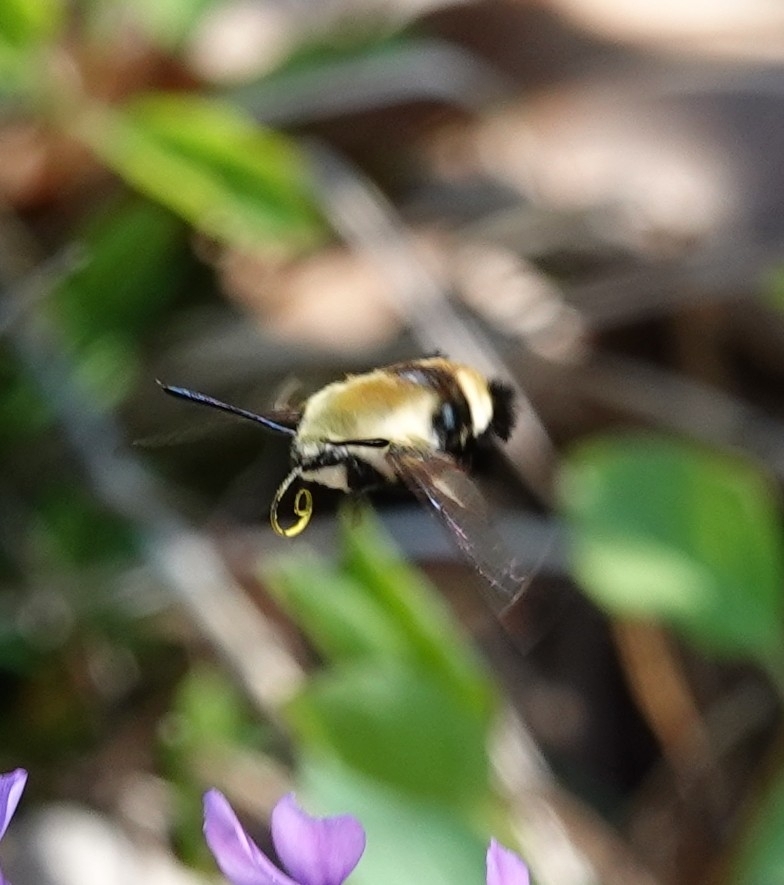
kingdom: Animalia
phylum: Arthropoda
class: Insecta
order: Lepidoptera
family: Sphingidae
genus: Hemaris
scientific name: Hemaris diffinis
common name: Bumblebee moth
